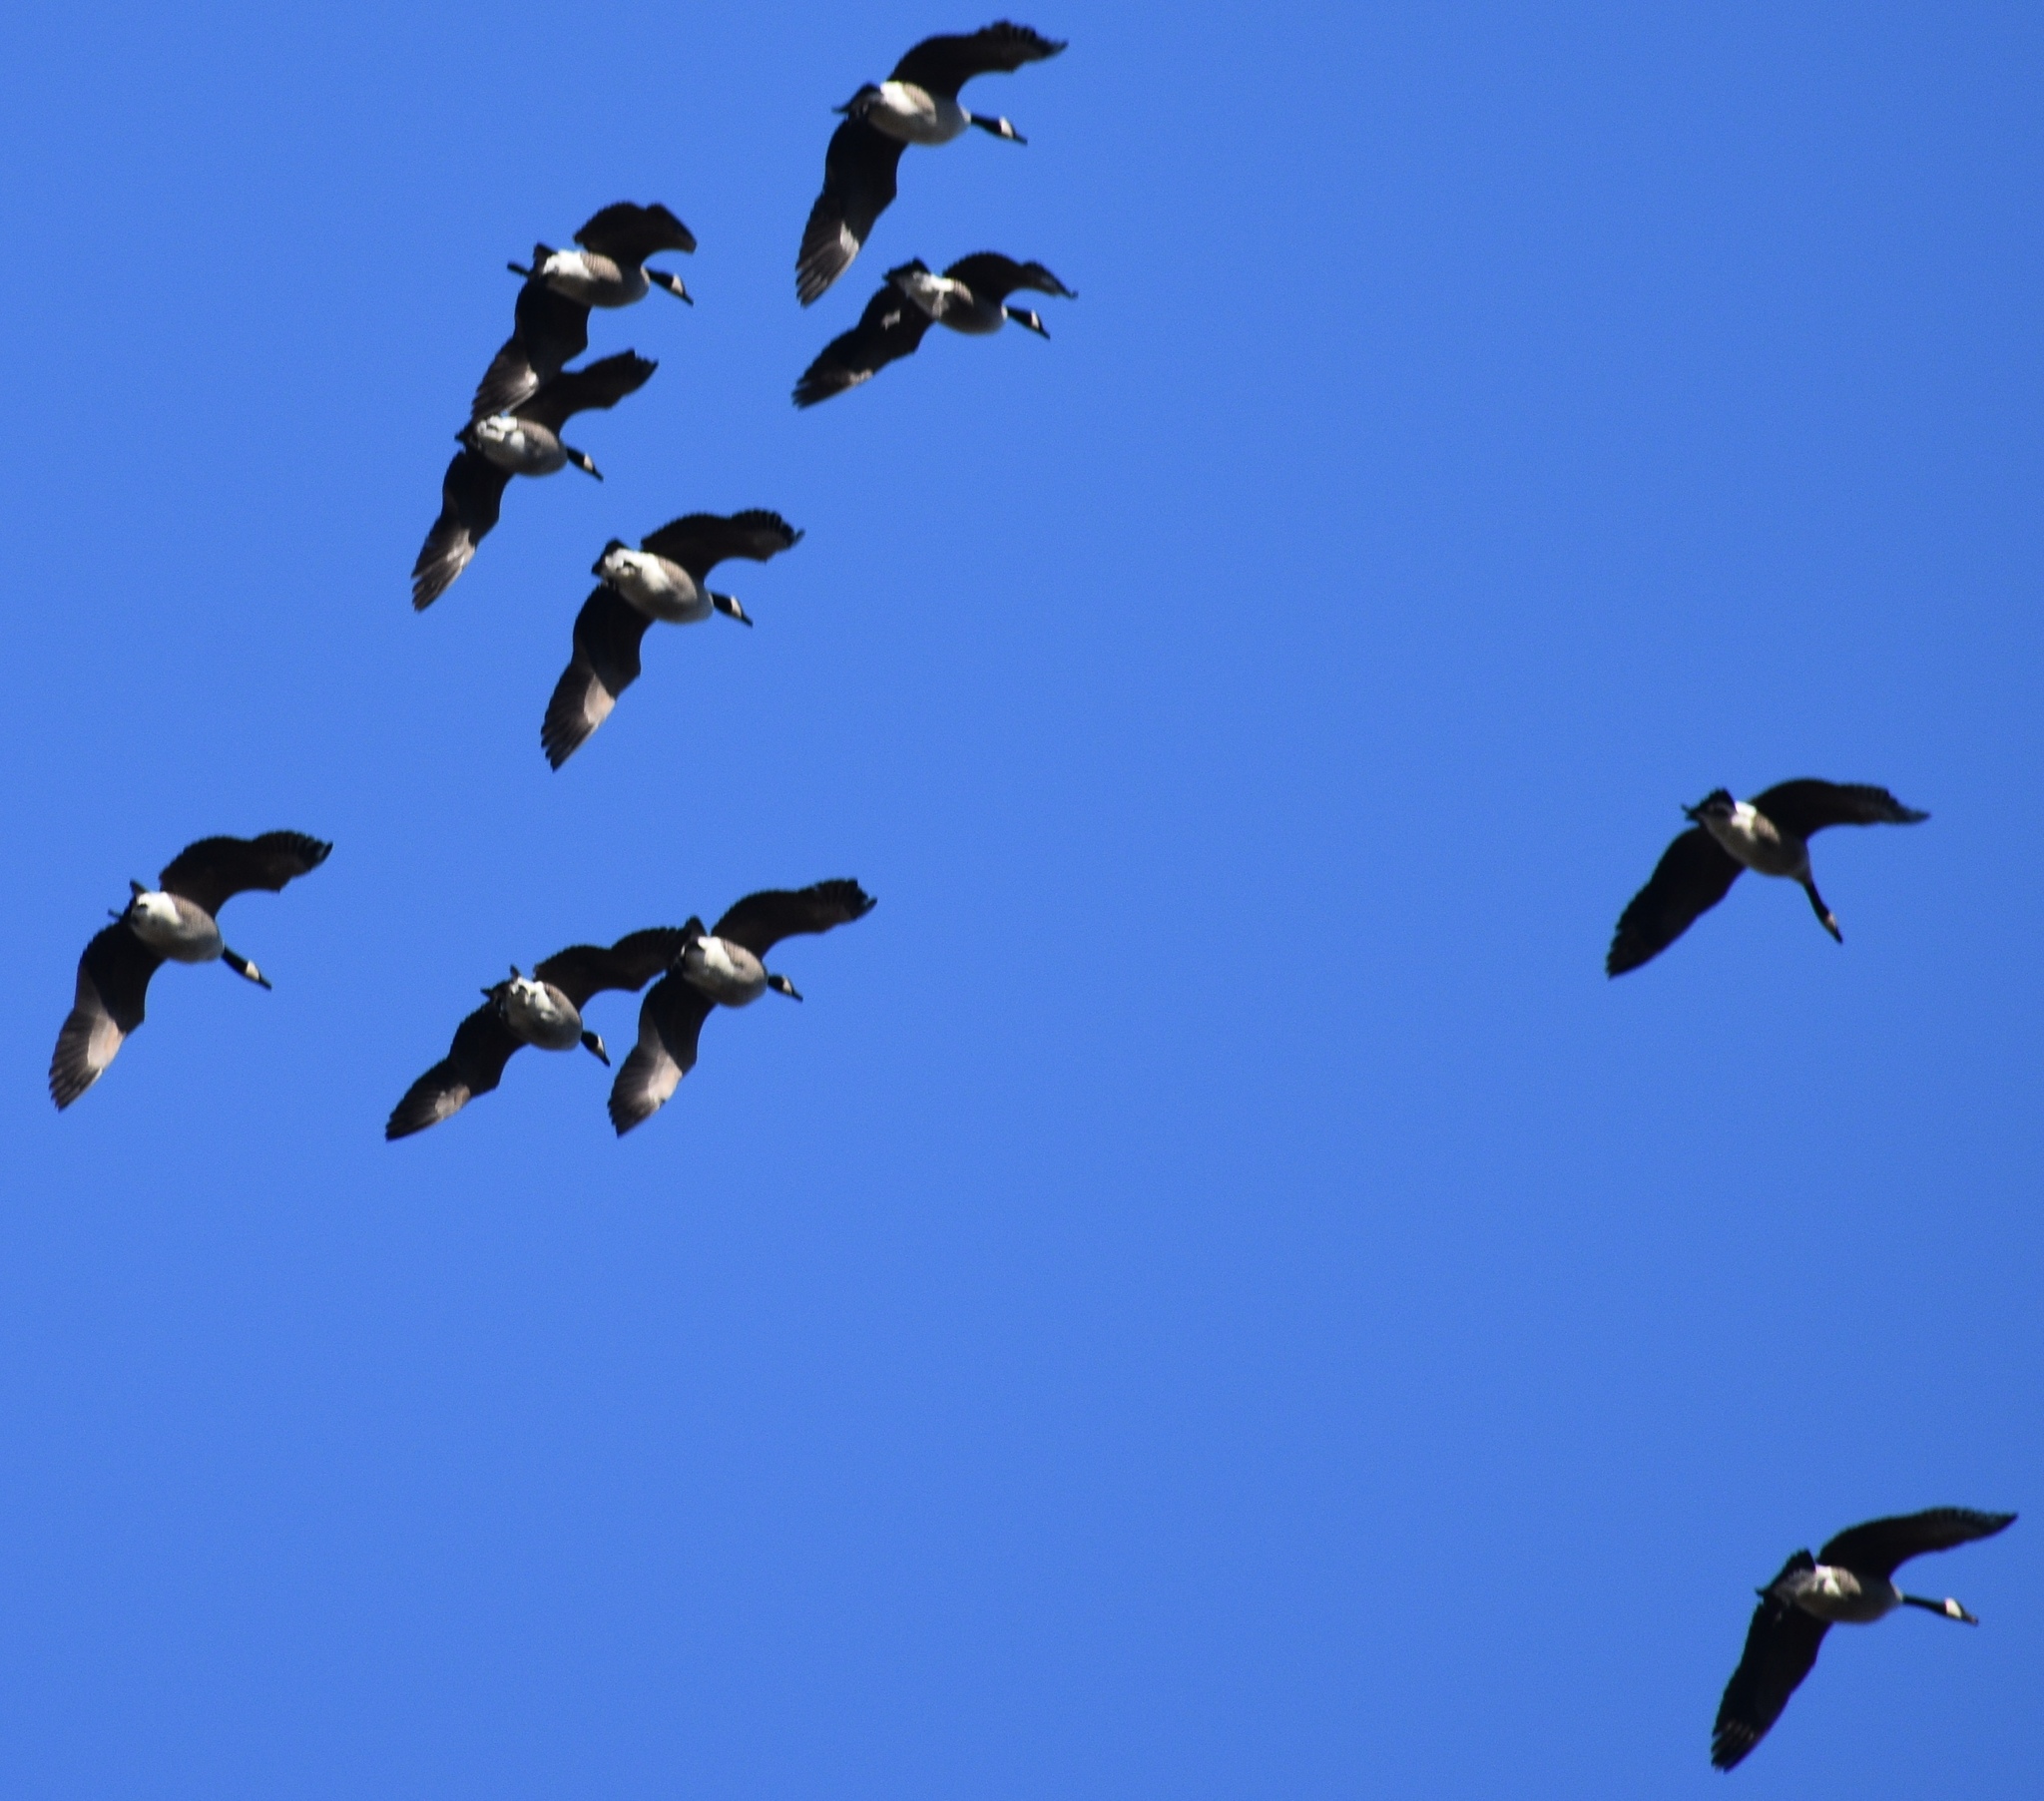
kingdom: Animalia
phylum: Chordata
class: Aves
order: Anseriformes
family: Anatidae
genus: Branta
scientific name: Branta canadensis
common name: Canada goose
